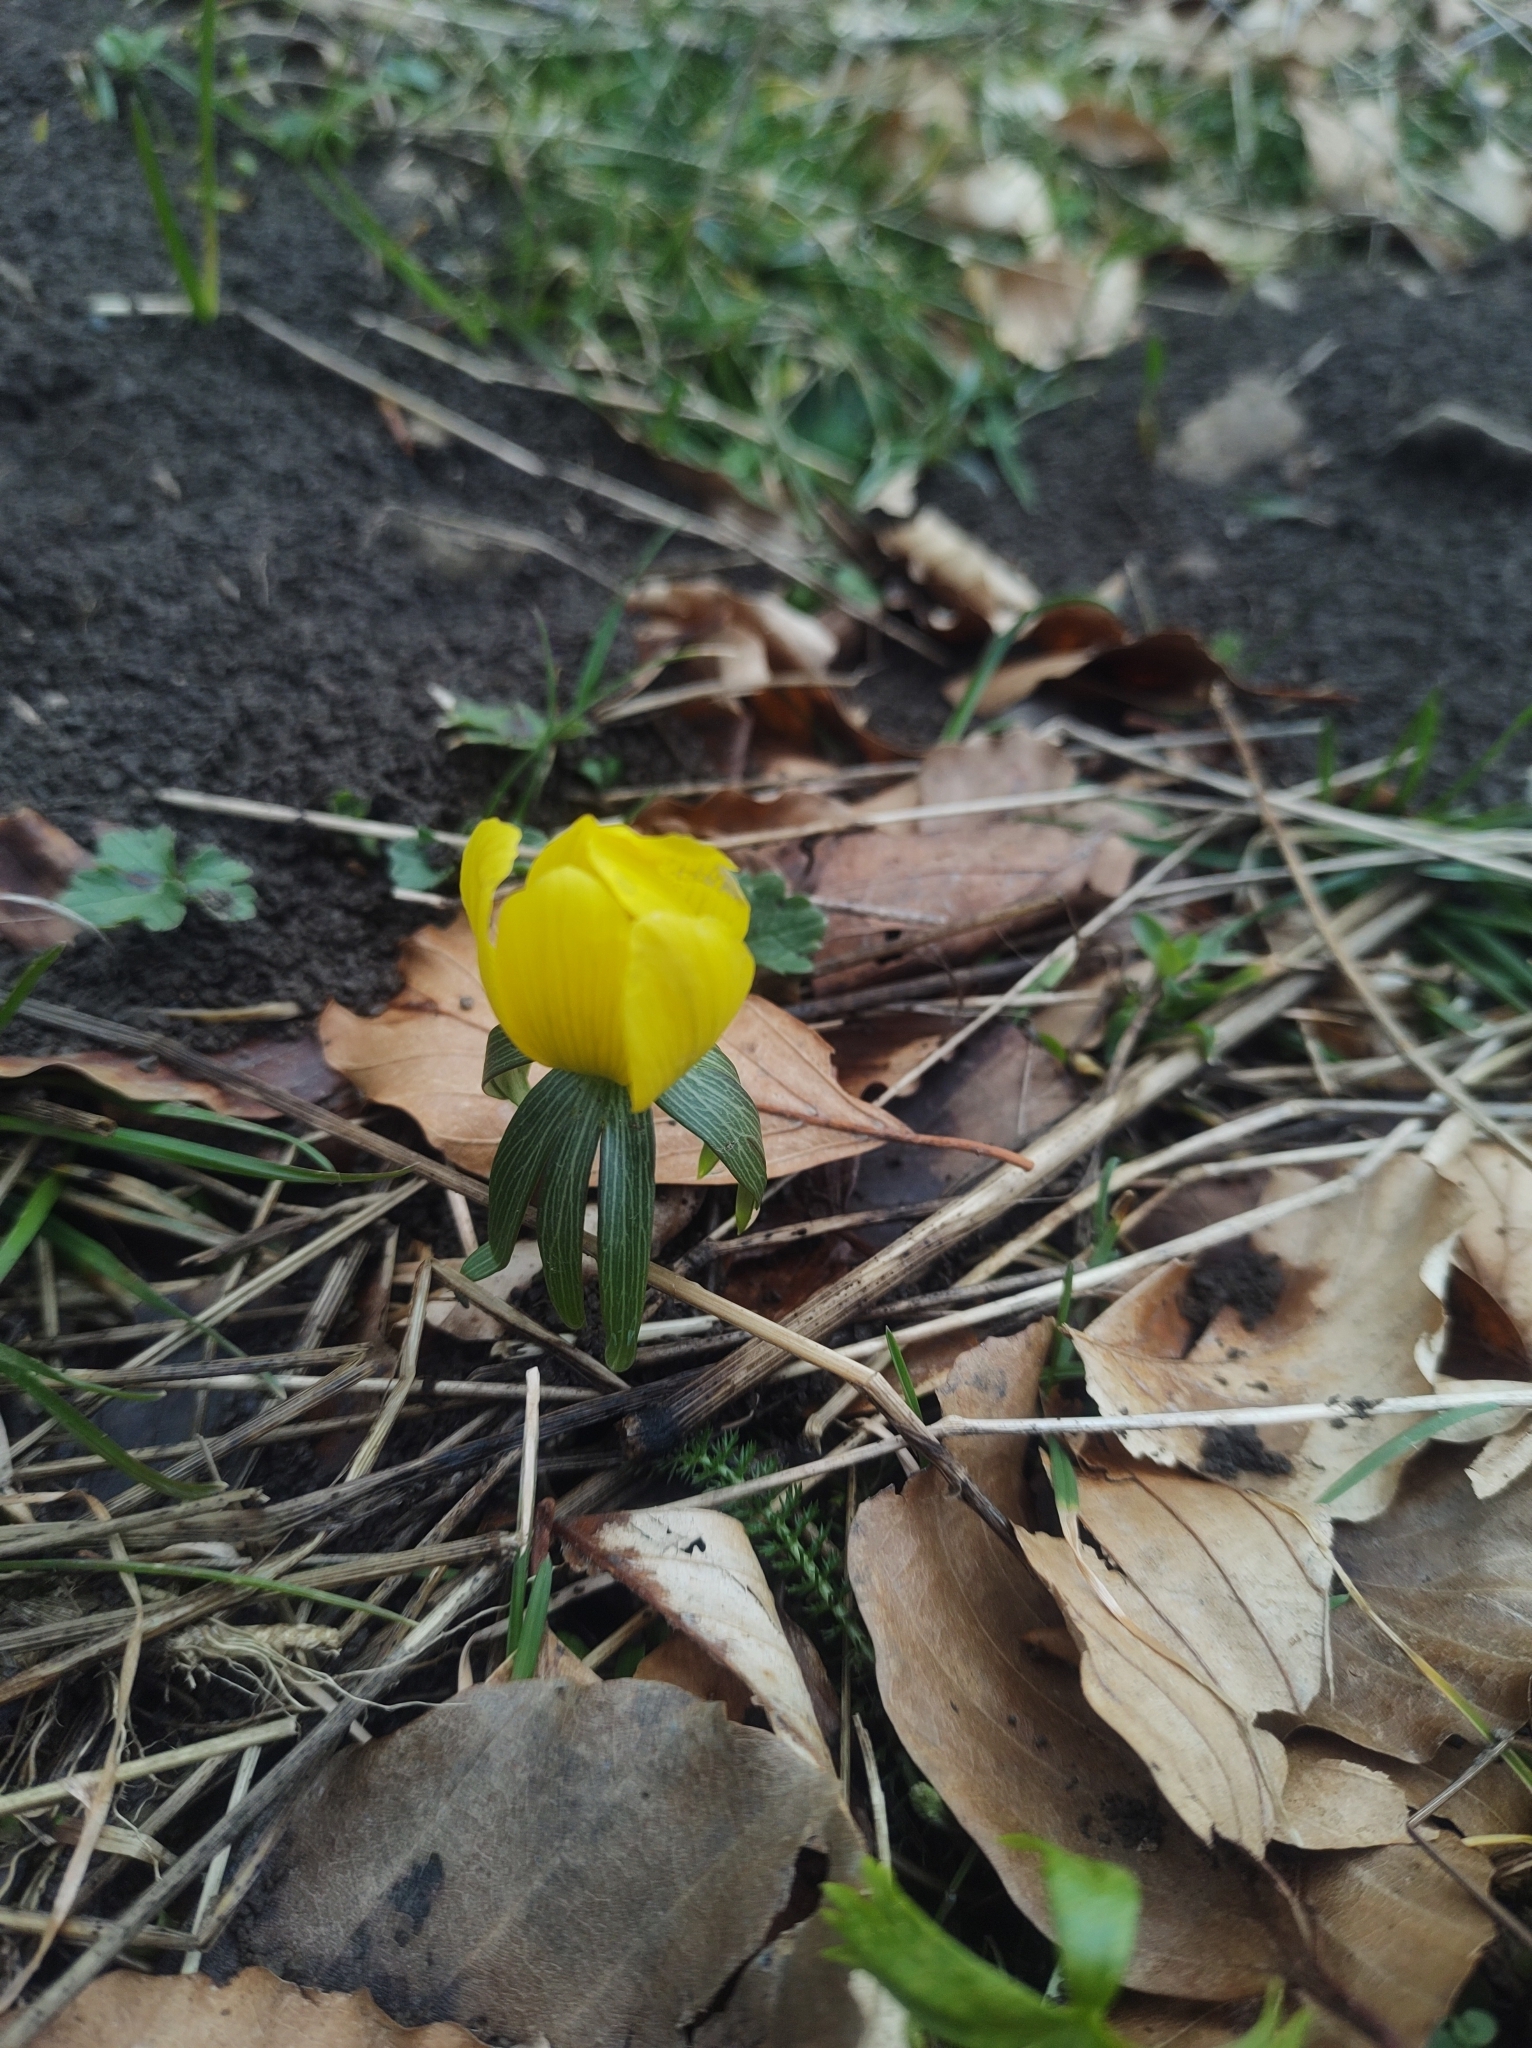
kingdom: Plantae
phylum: Tracheophyta
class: Magnoliopsida
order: Ranunculales
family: Ranunculaceae
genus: Eranthis
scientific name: Eranthis hyemalis
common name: Winter aconite
